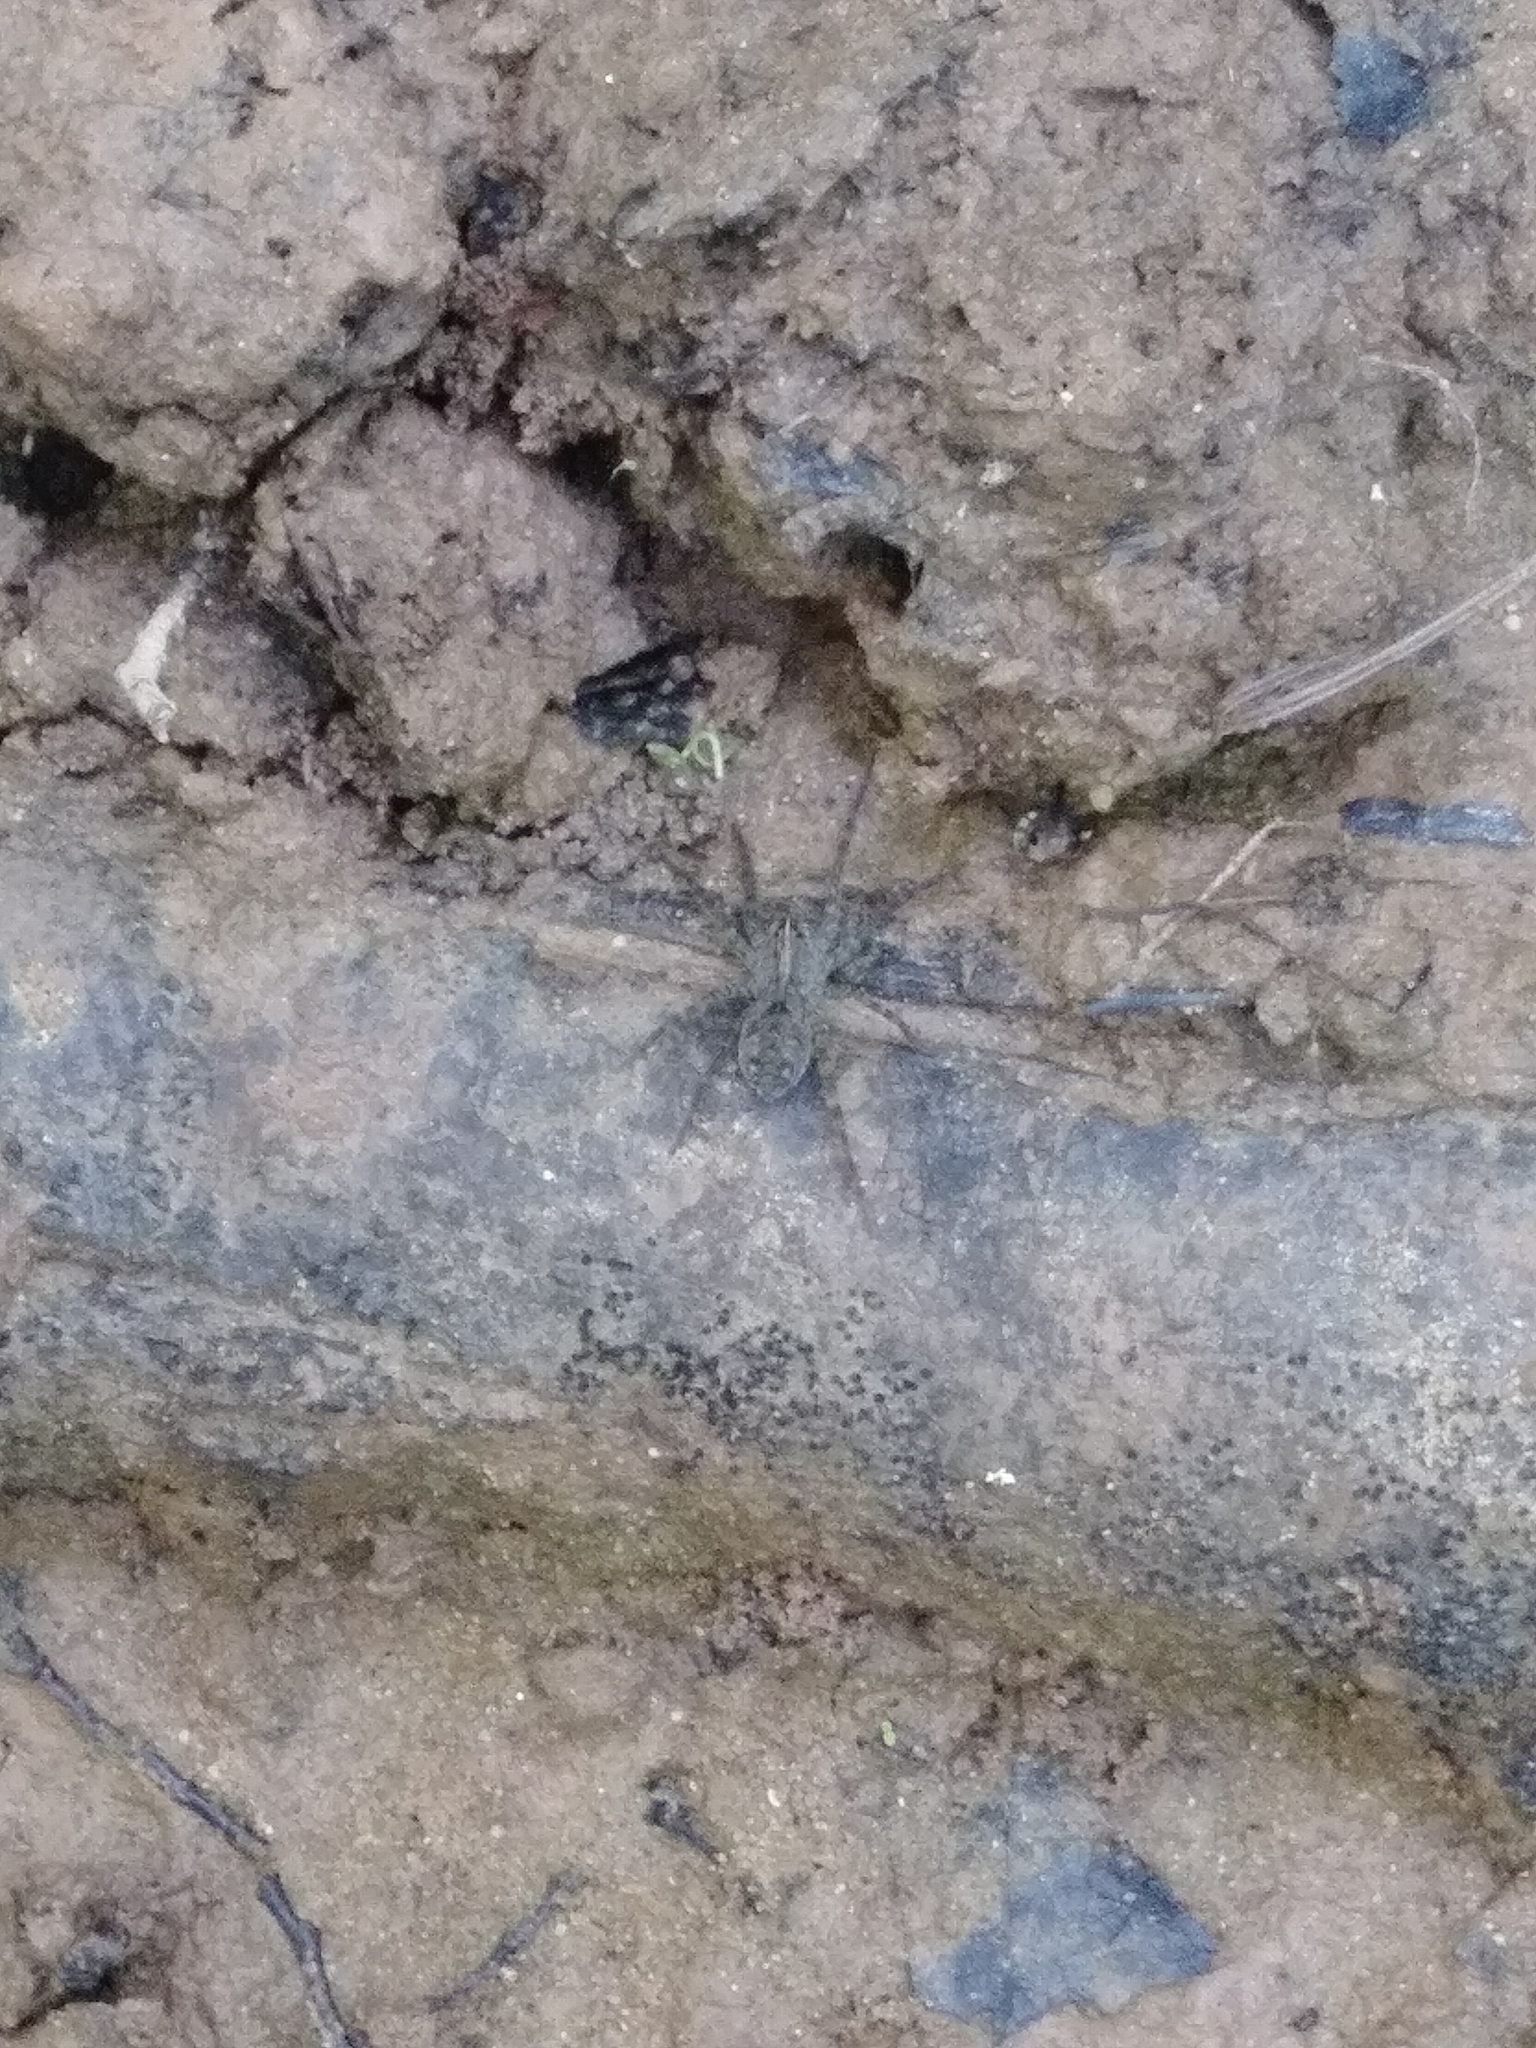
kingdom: Animalia
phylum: Arthropoda
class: Arachnida
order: Araneae
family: Lycosidae
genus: Tigrosa
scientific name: Tigrosa
